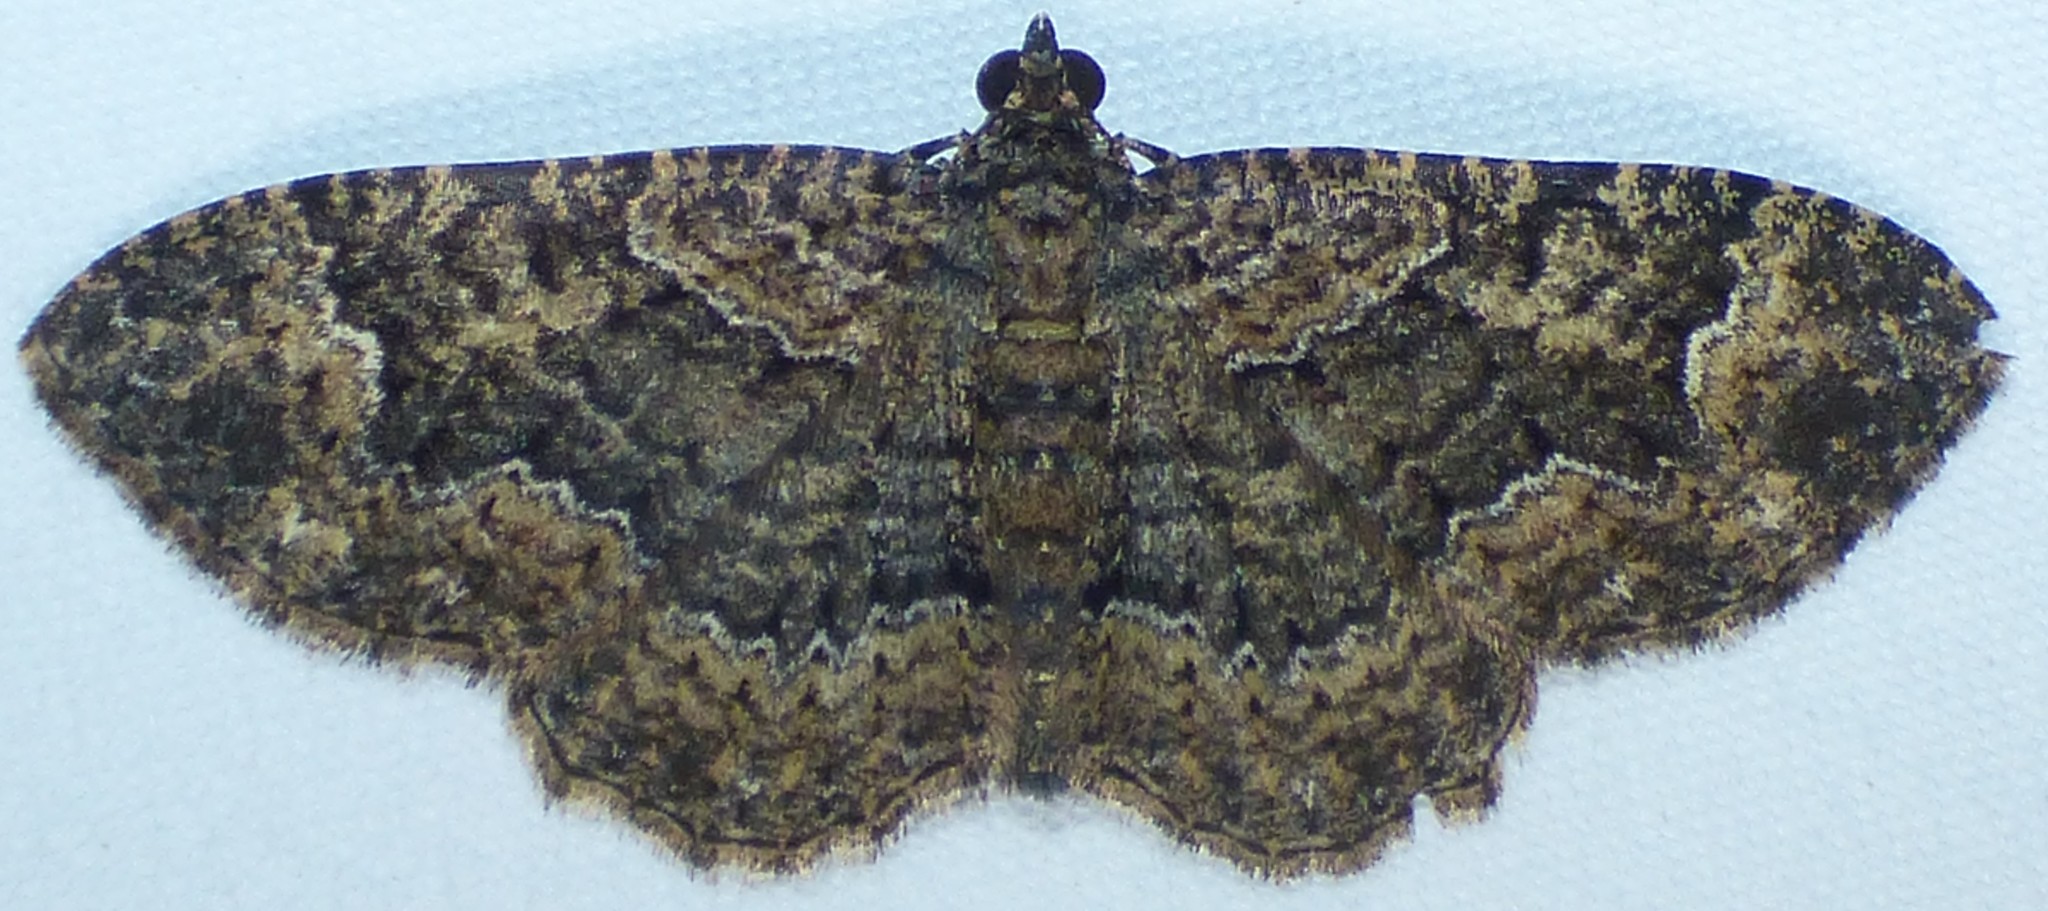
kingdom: Animalia
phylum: Arthropoda
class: Insecta
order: Lepidoptera
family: Geometridae
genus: Disclisioprocta
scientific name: Disclisioprocta stellata
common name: Somber carpet
